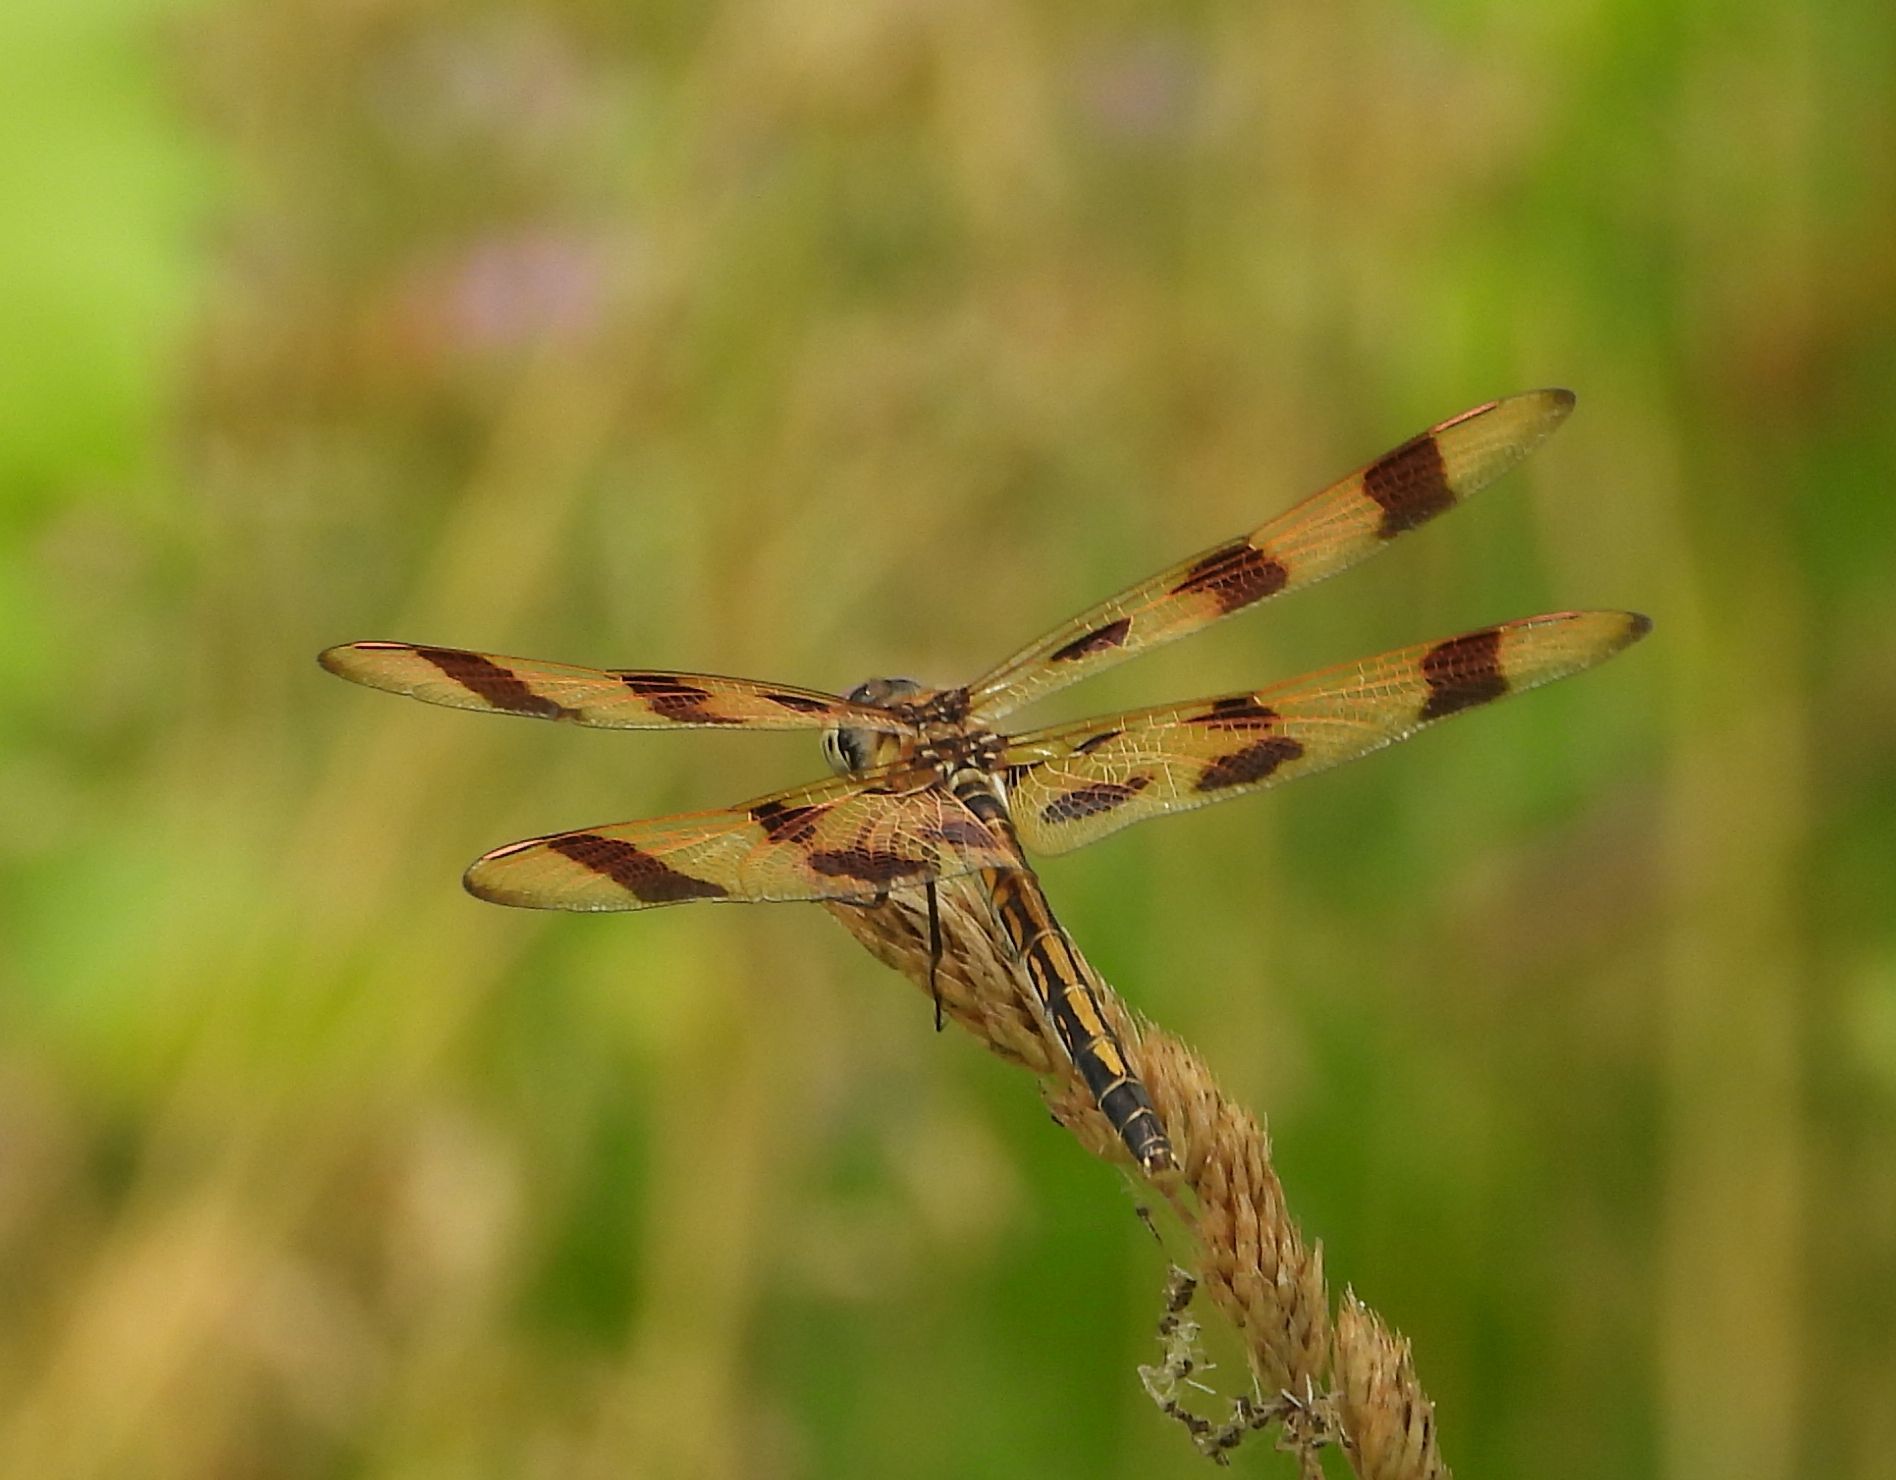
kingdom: Animalia
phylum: Arthropoda
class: Insecta
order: Odonata
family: Libellulidae
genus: Celithemis
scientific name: Celithemis eponina
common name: Halloween pennant
